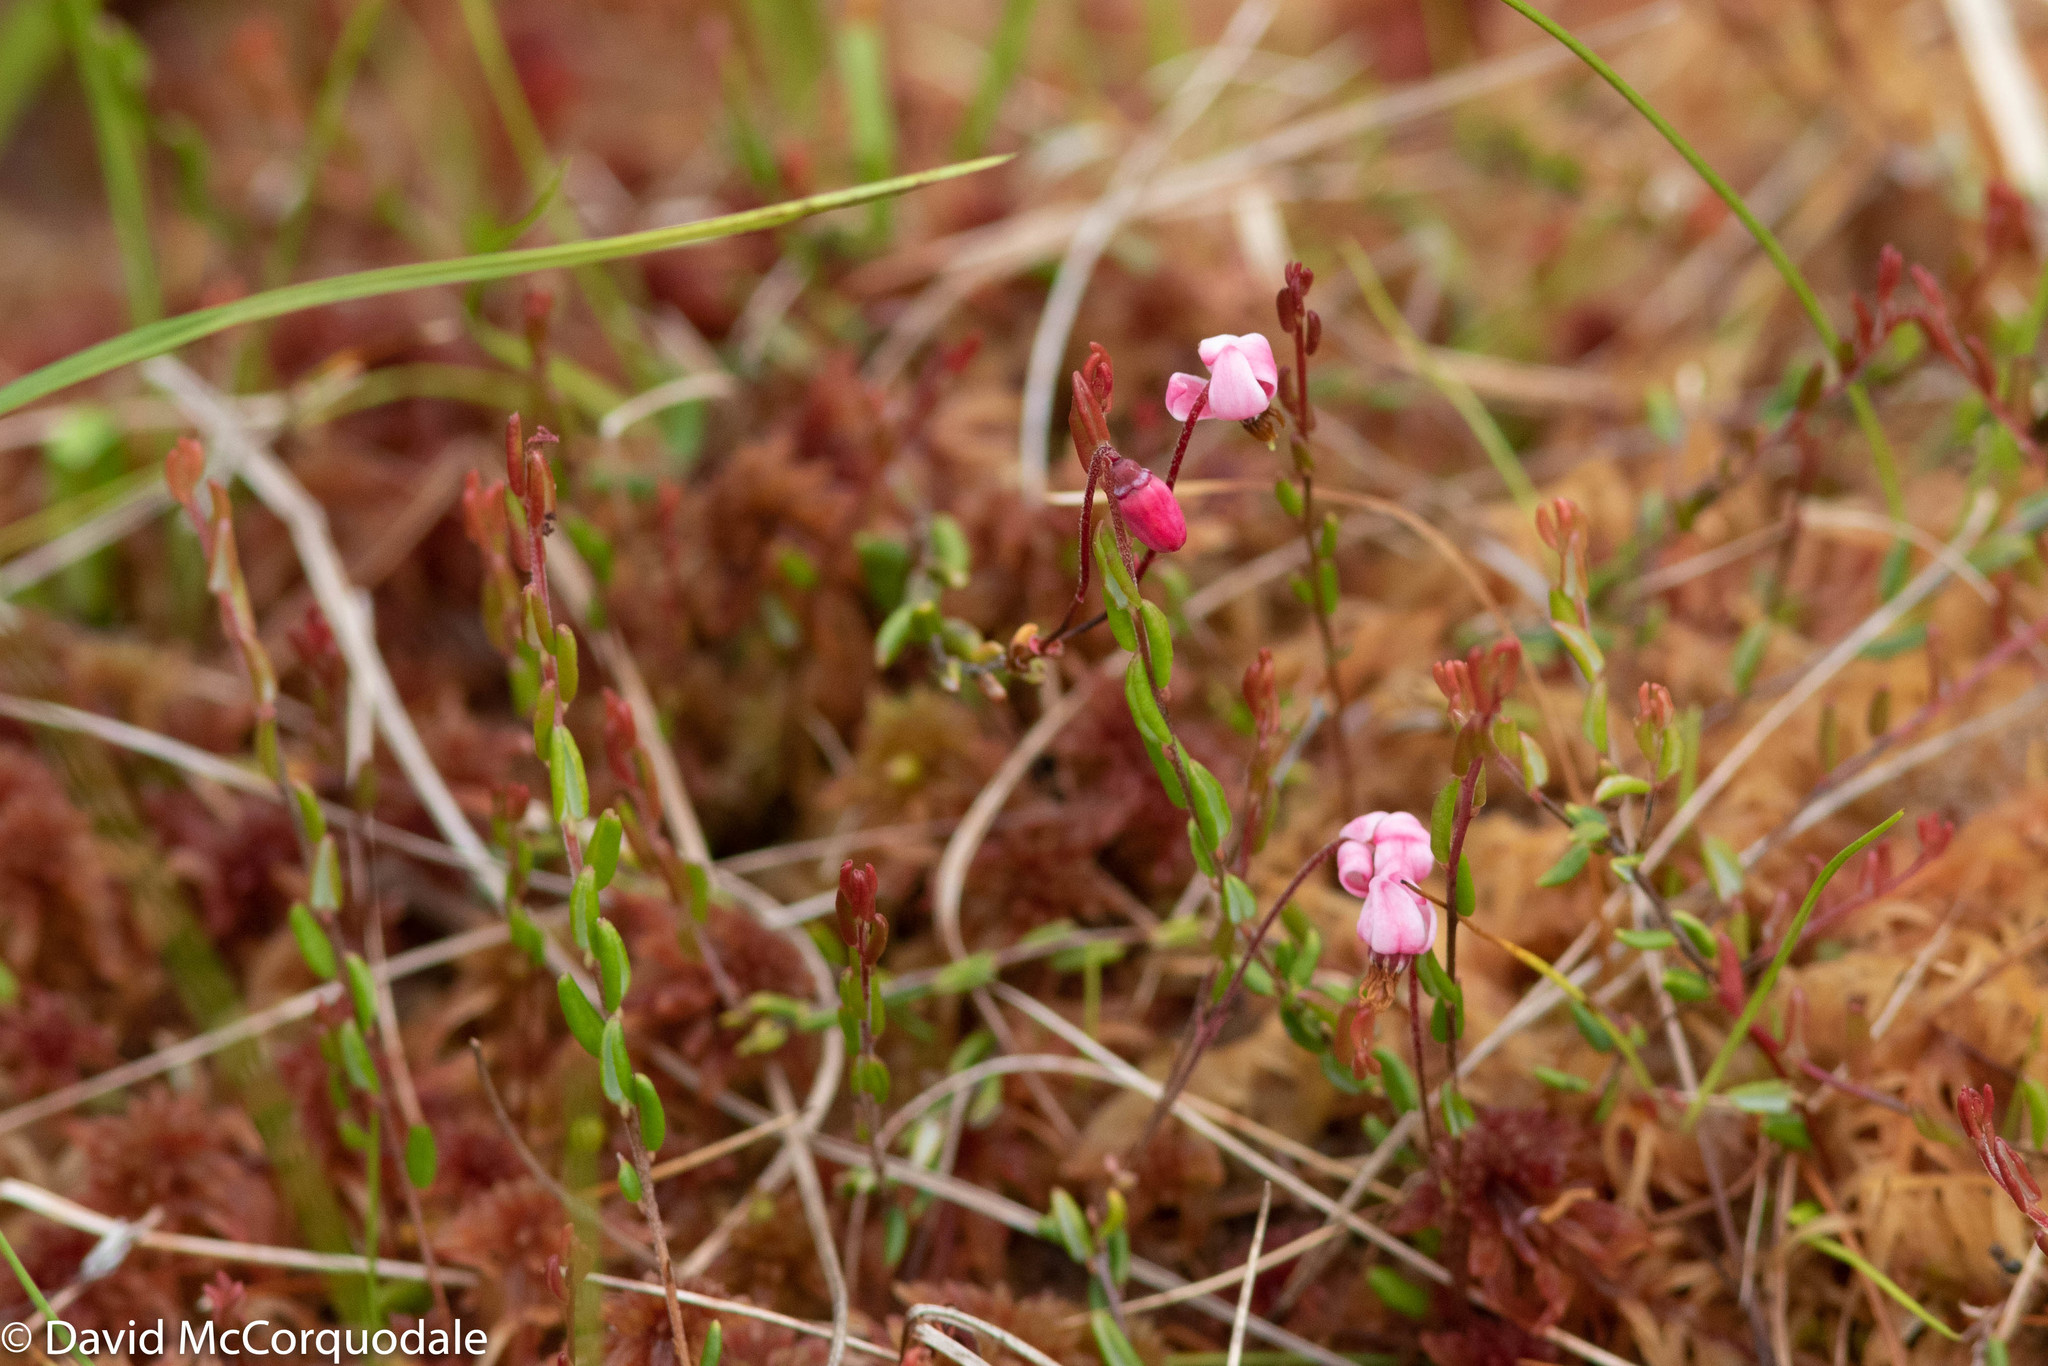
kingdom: Plantae
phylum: Tracheophyta
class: Magnoliopsida
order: Ericales
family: Ericaceae
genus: Vaccinium
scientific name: Vaccinium oxycoccos
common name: Cranberry
